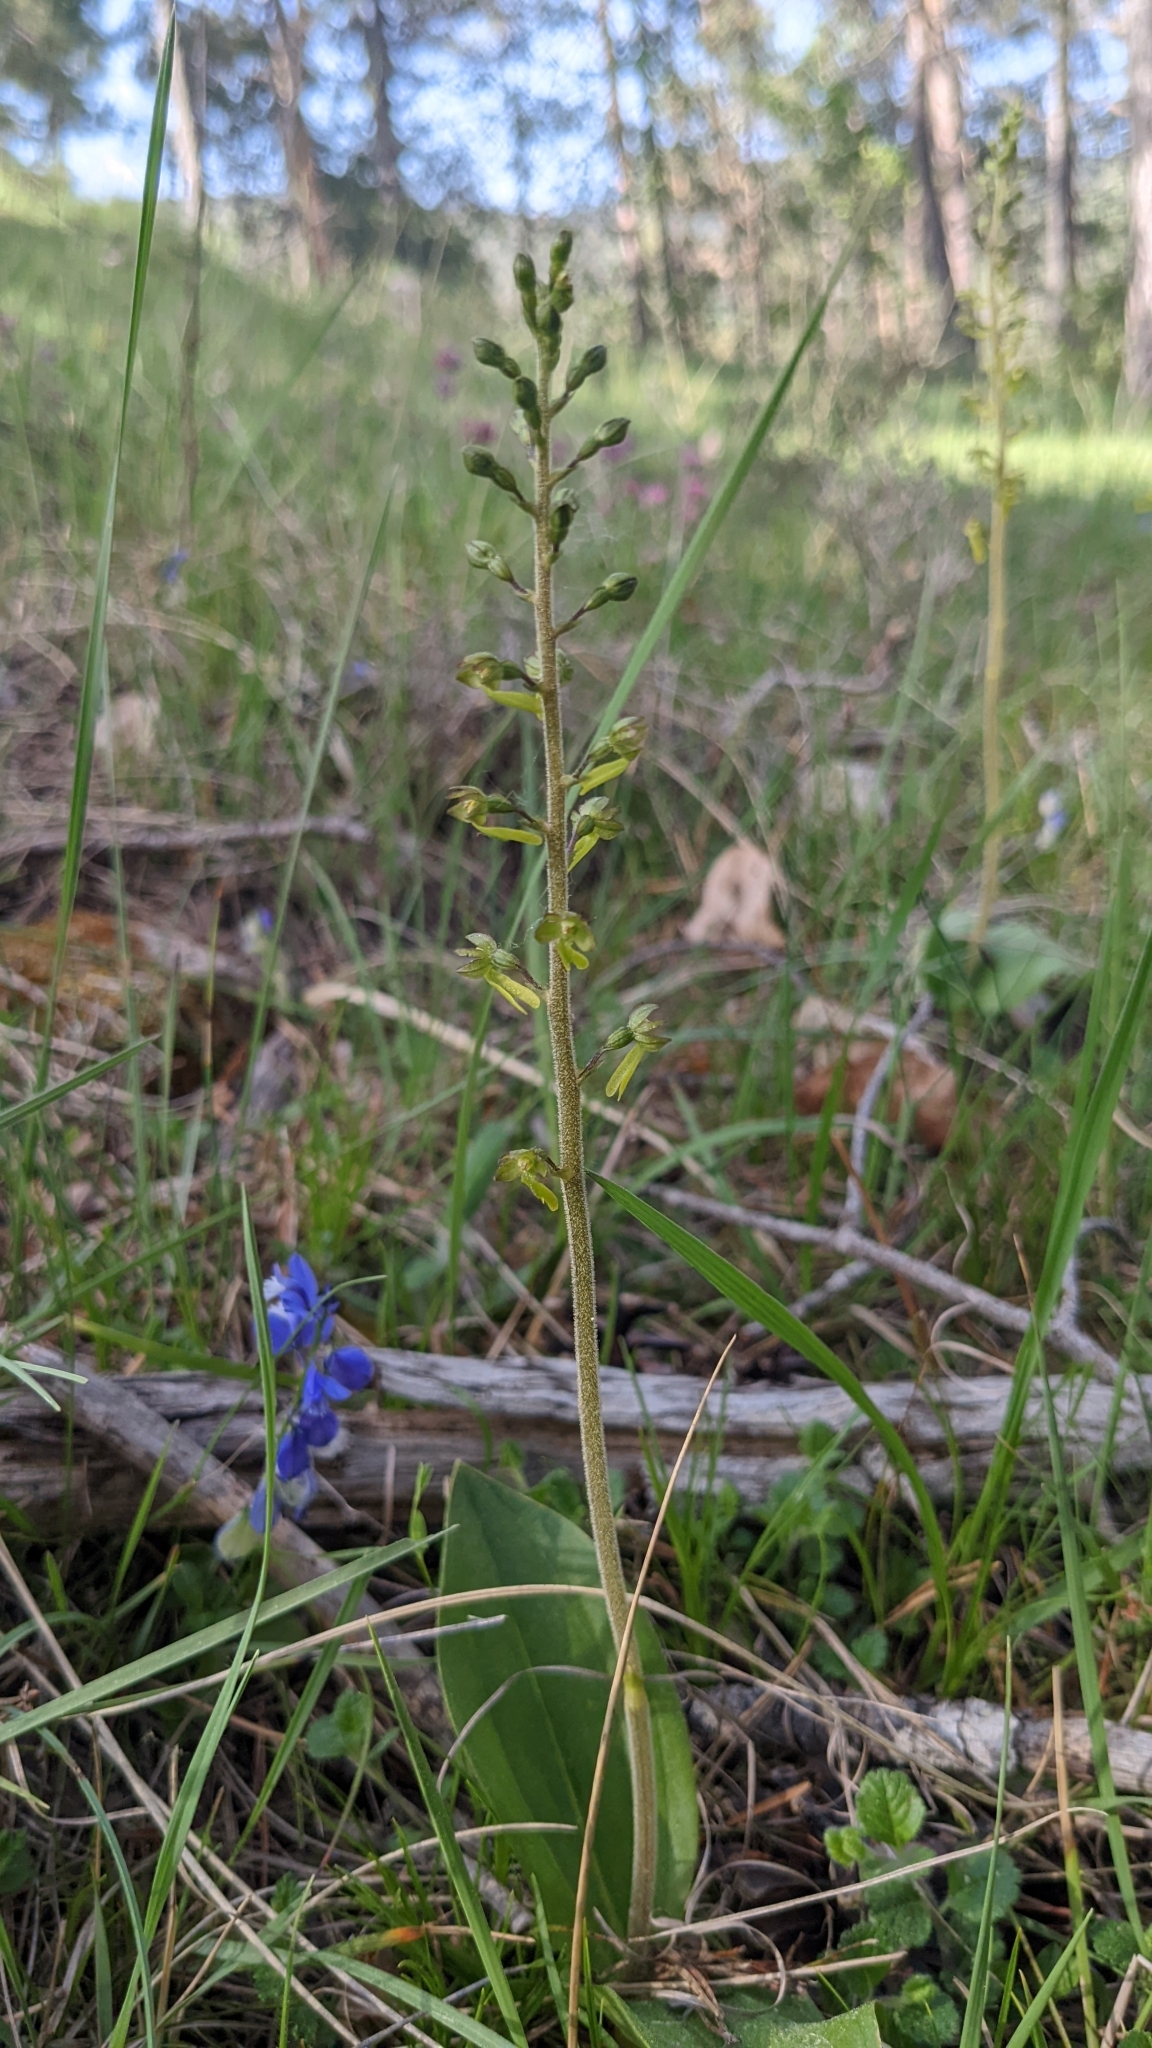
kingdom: Plantae
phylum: Tracheophyta
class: Liliopsida
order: Asparagales
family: Orchidaceae
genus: Neottia
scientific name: Neottia ovata
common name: Common twayblade
